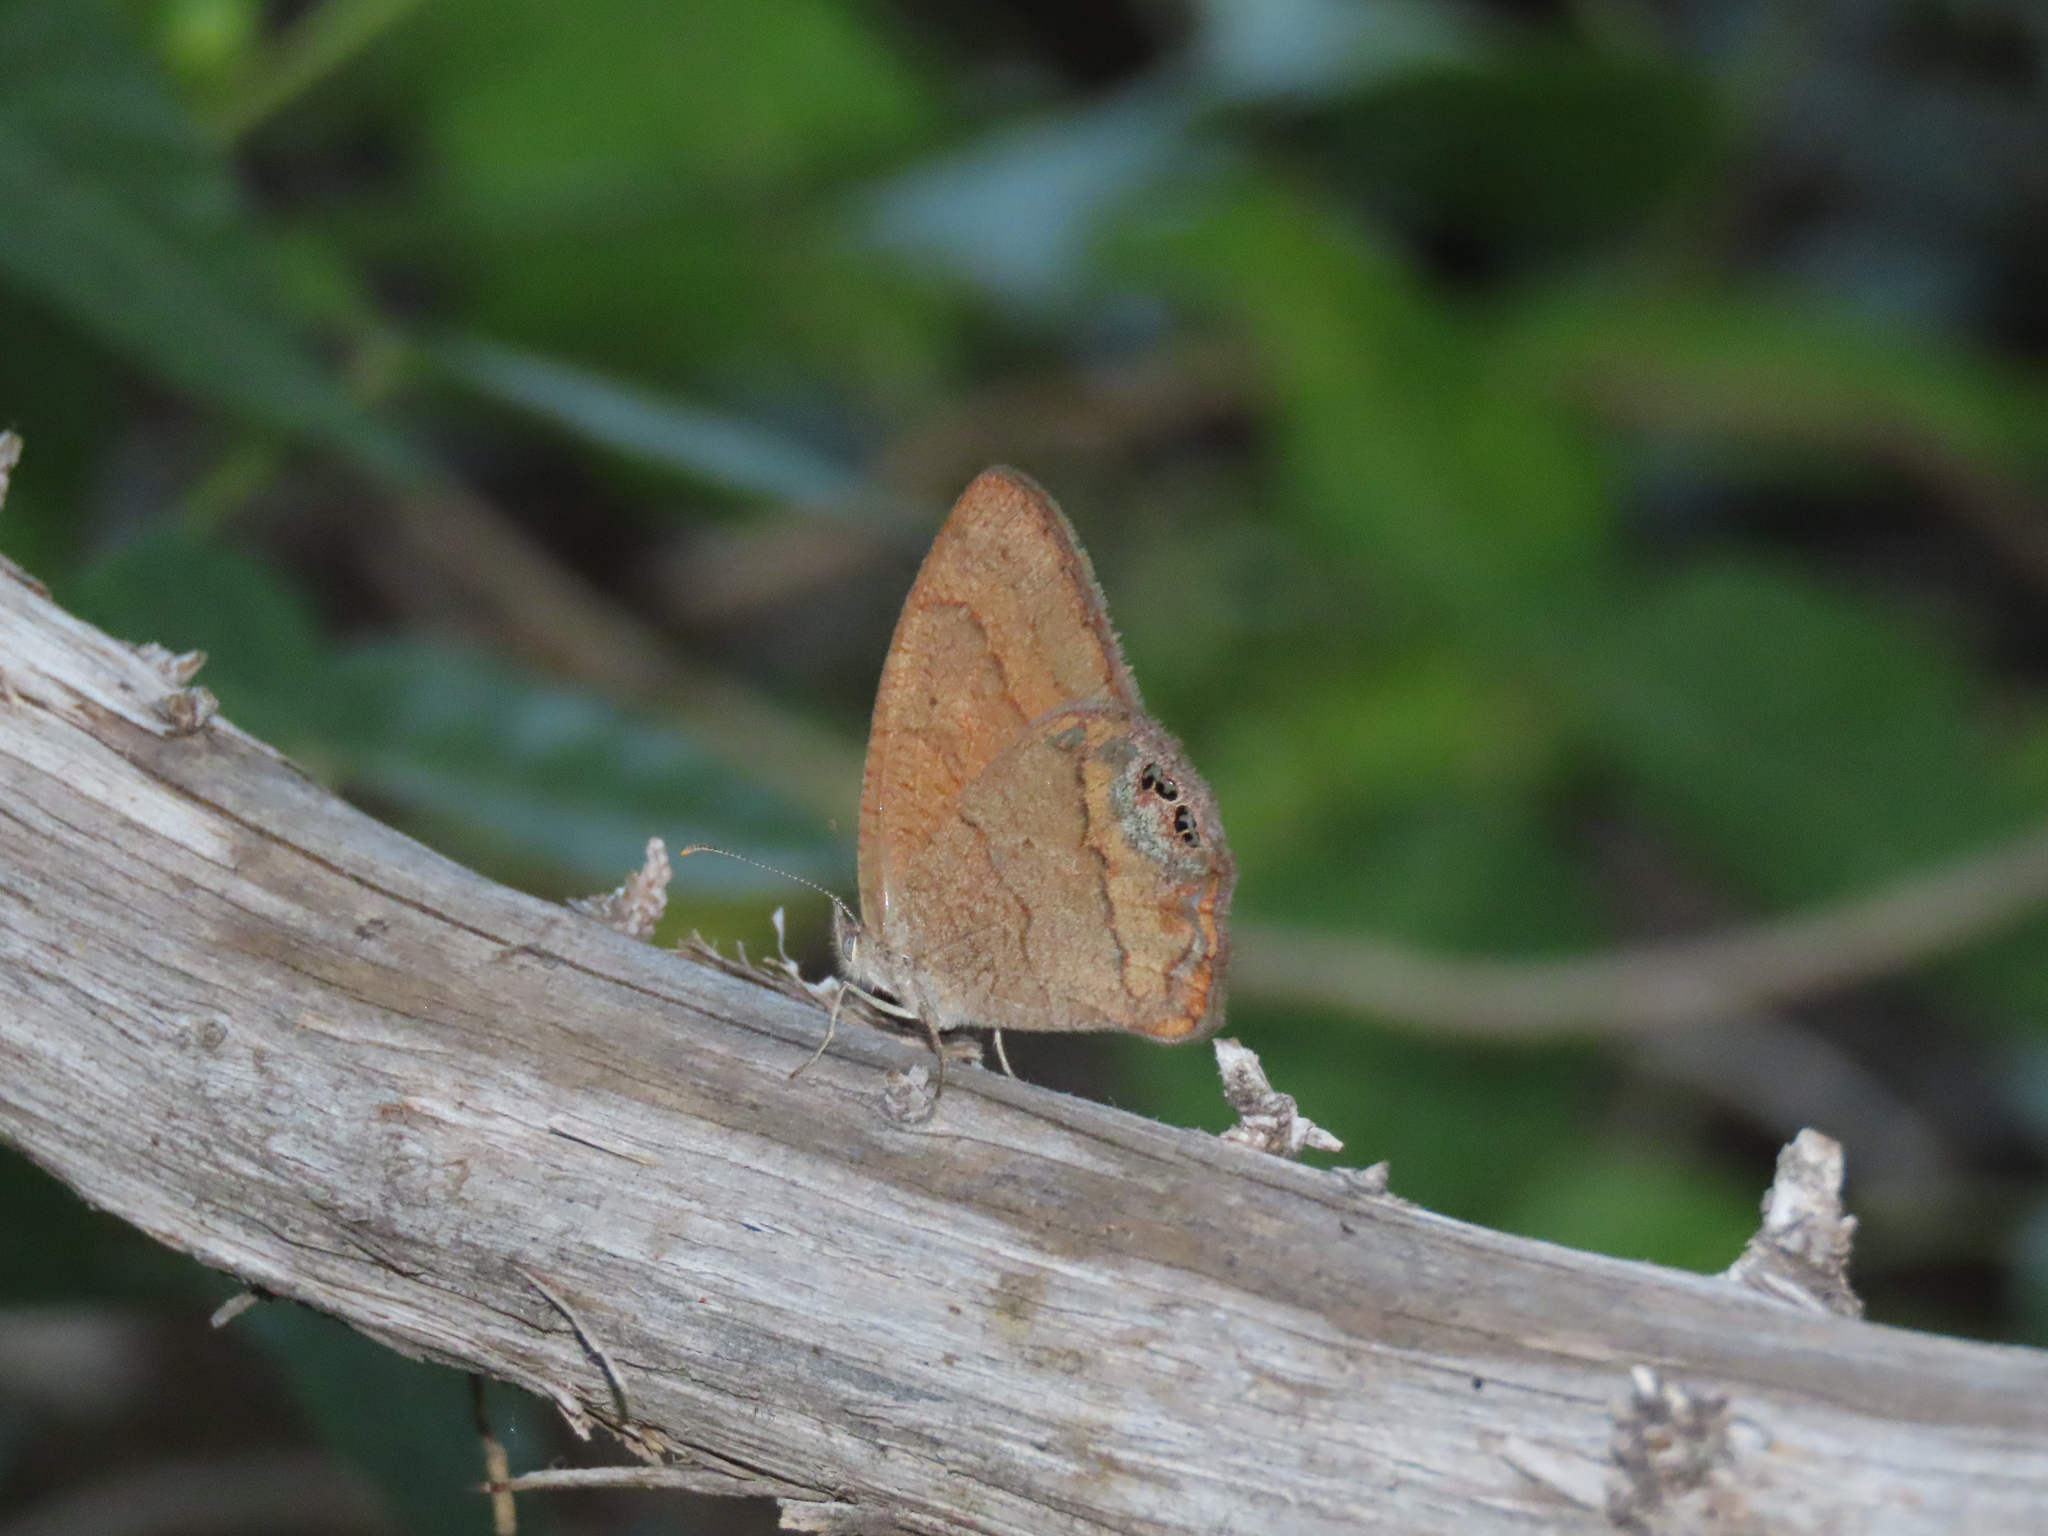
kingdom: Animalia
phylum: Arthropoda
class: Insecta
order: Lepidoptera
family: Nymphalidae
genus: Euptychia
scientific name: Euptychia pyracmon
